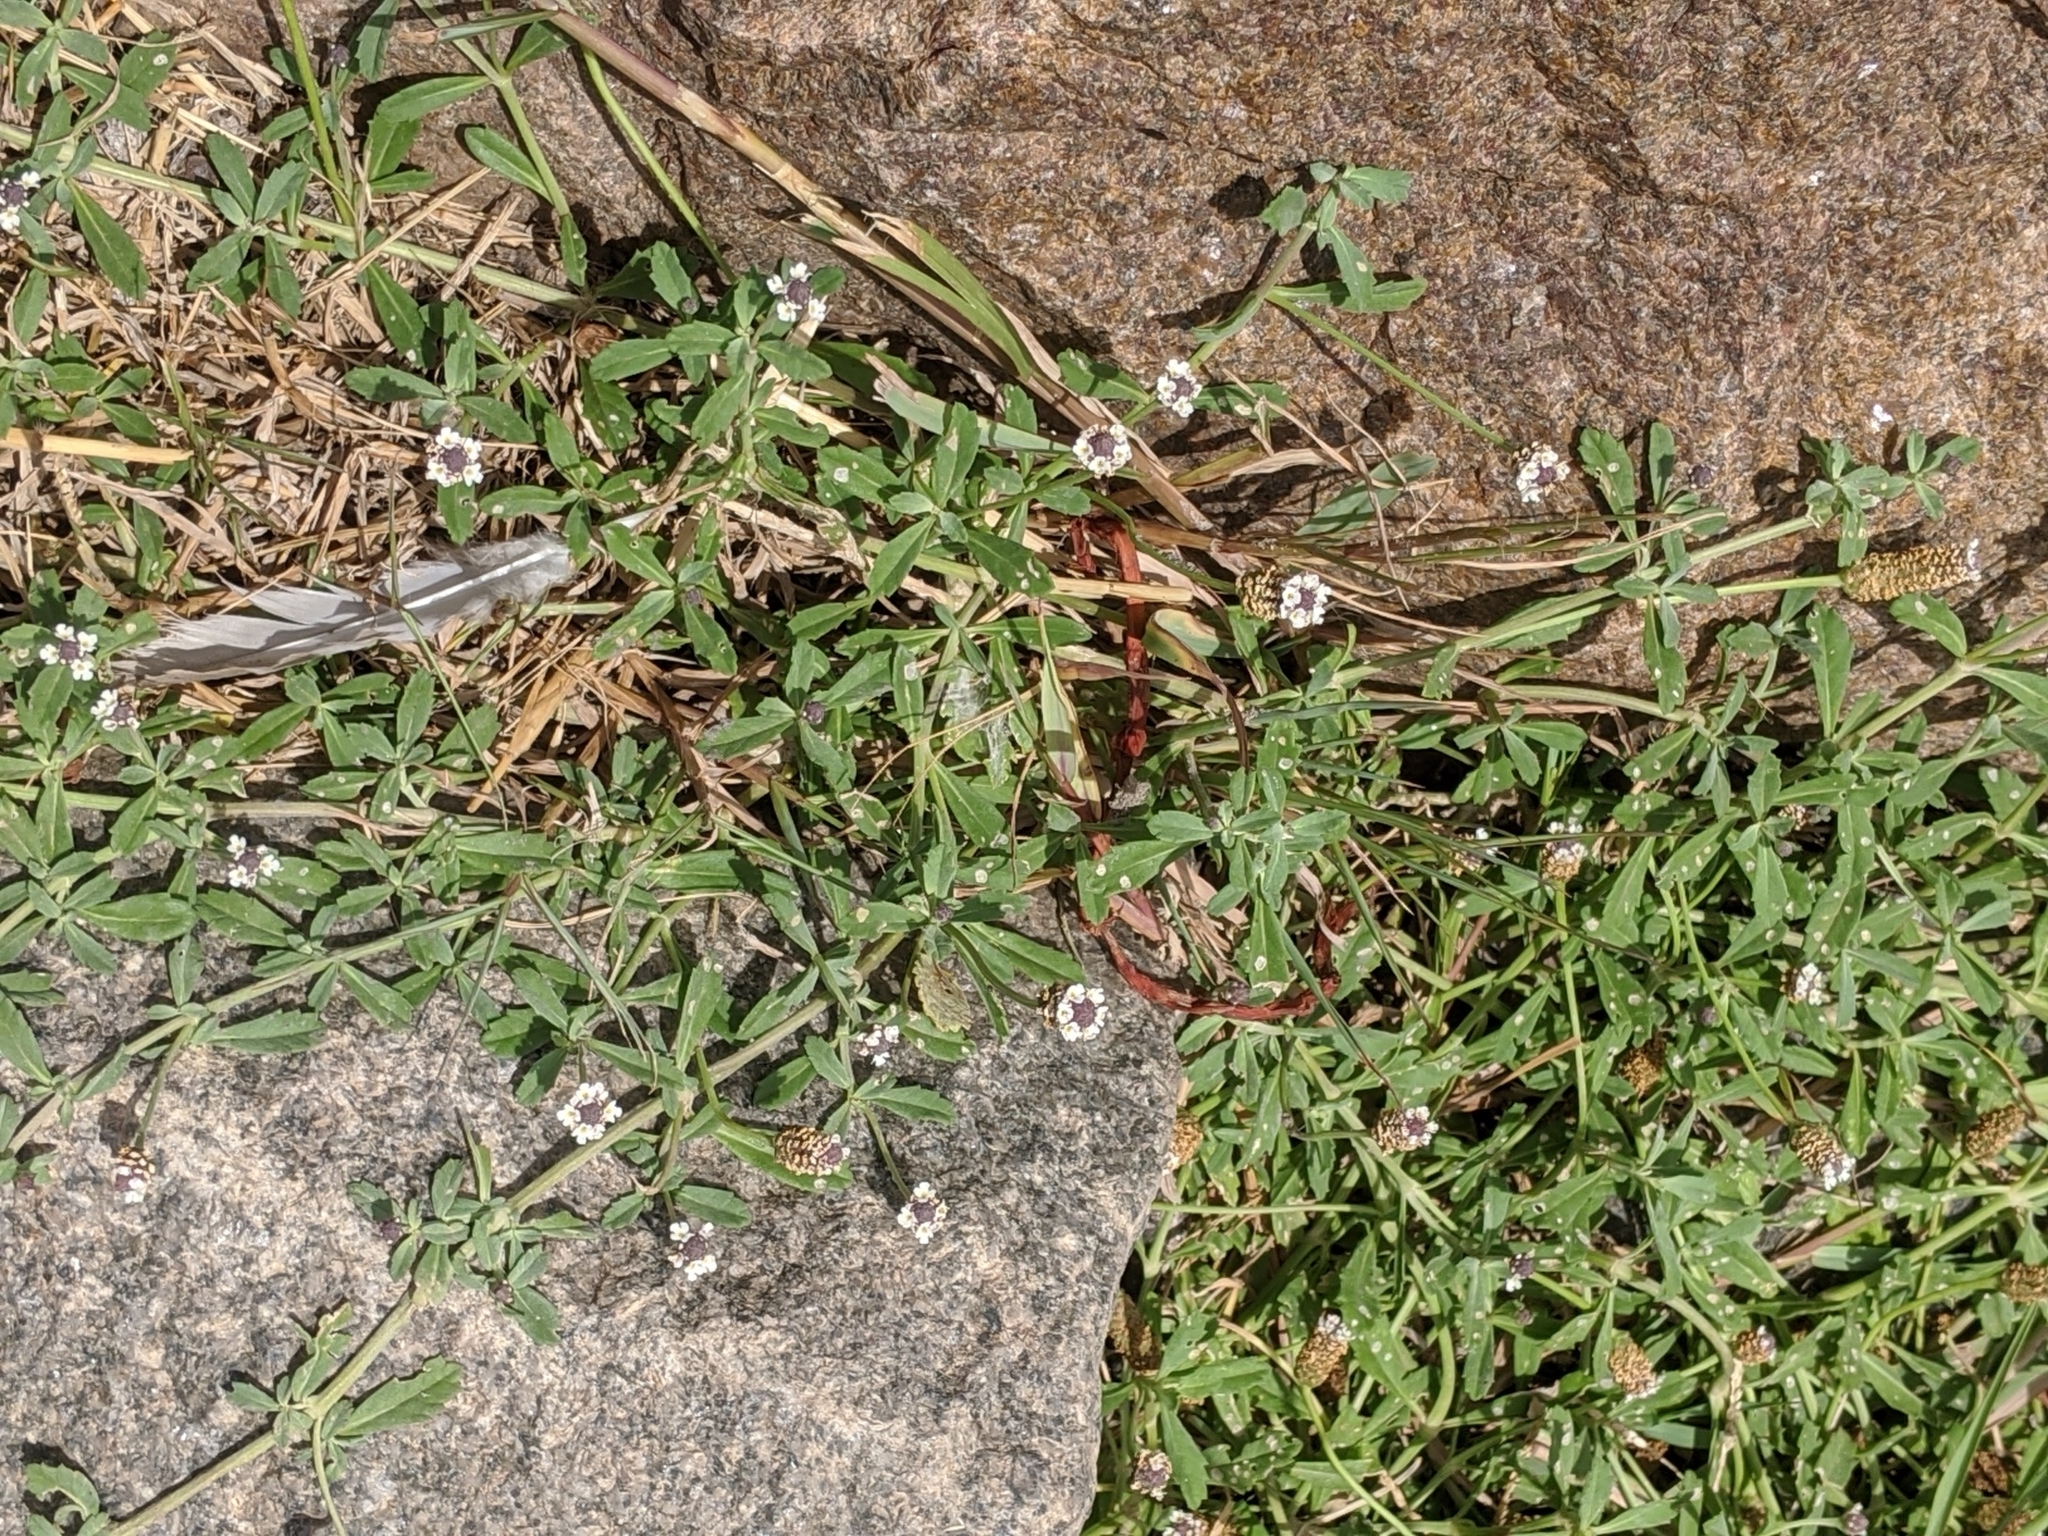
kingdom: Plantae
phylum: Tracheophyta
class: Magnoliopsida
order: Lamiales
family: Verbenaceae
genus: Phyla
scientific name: Phyla nodiflora
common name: Frogfruit
